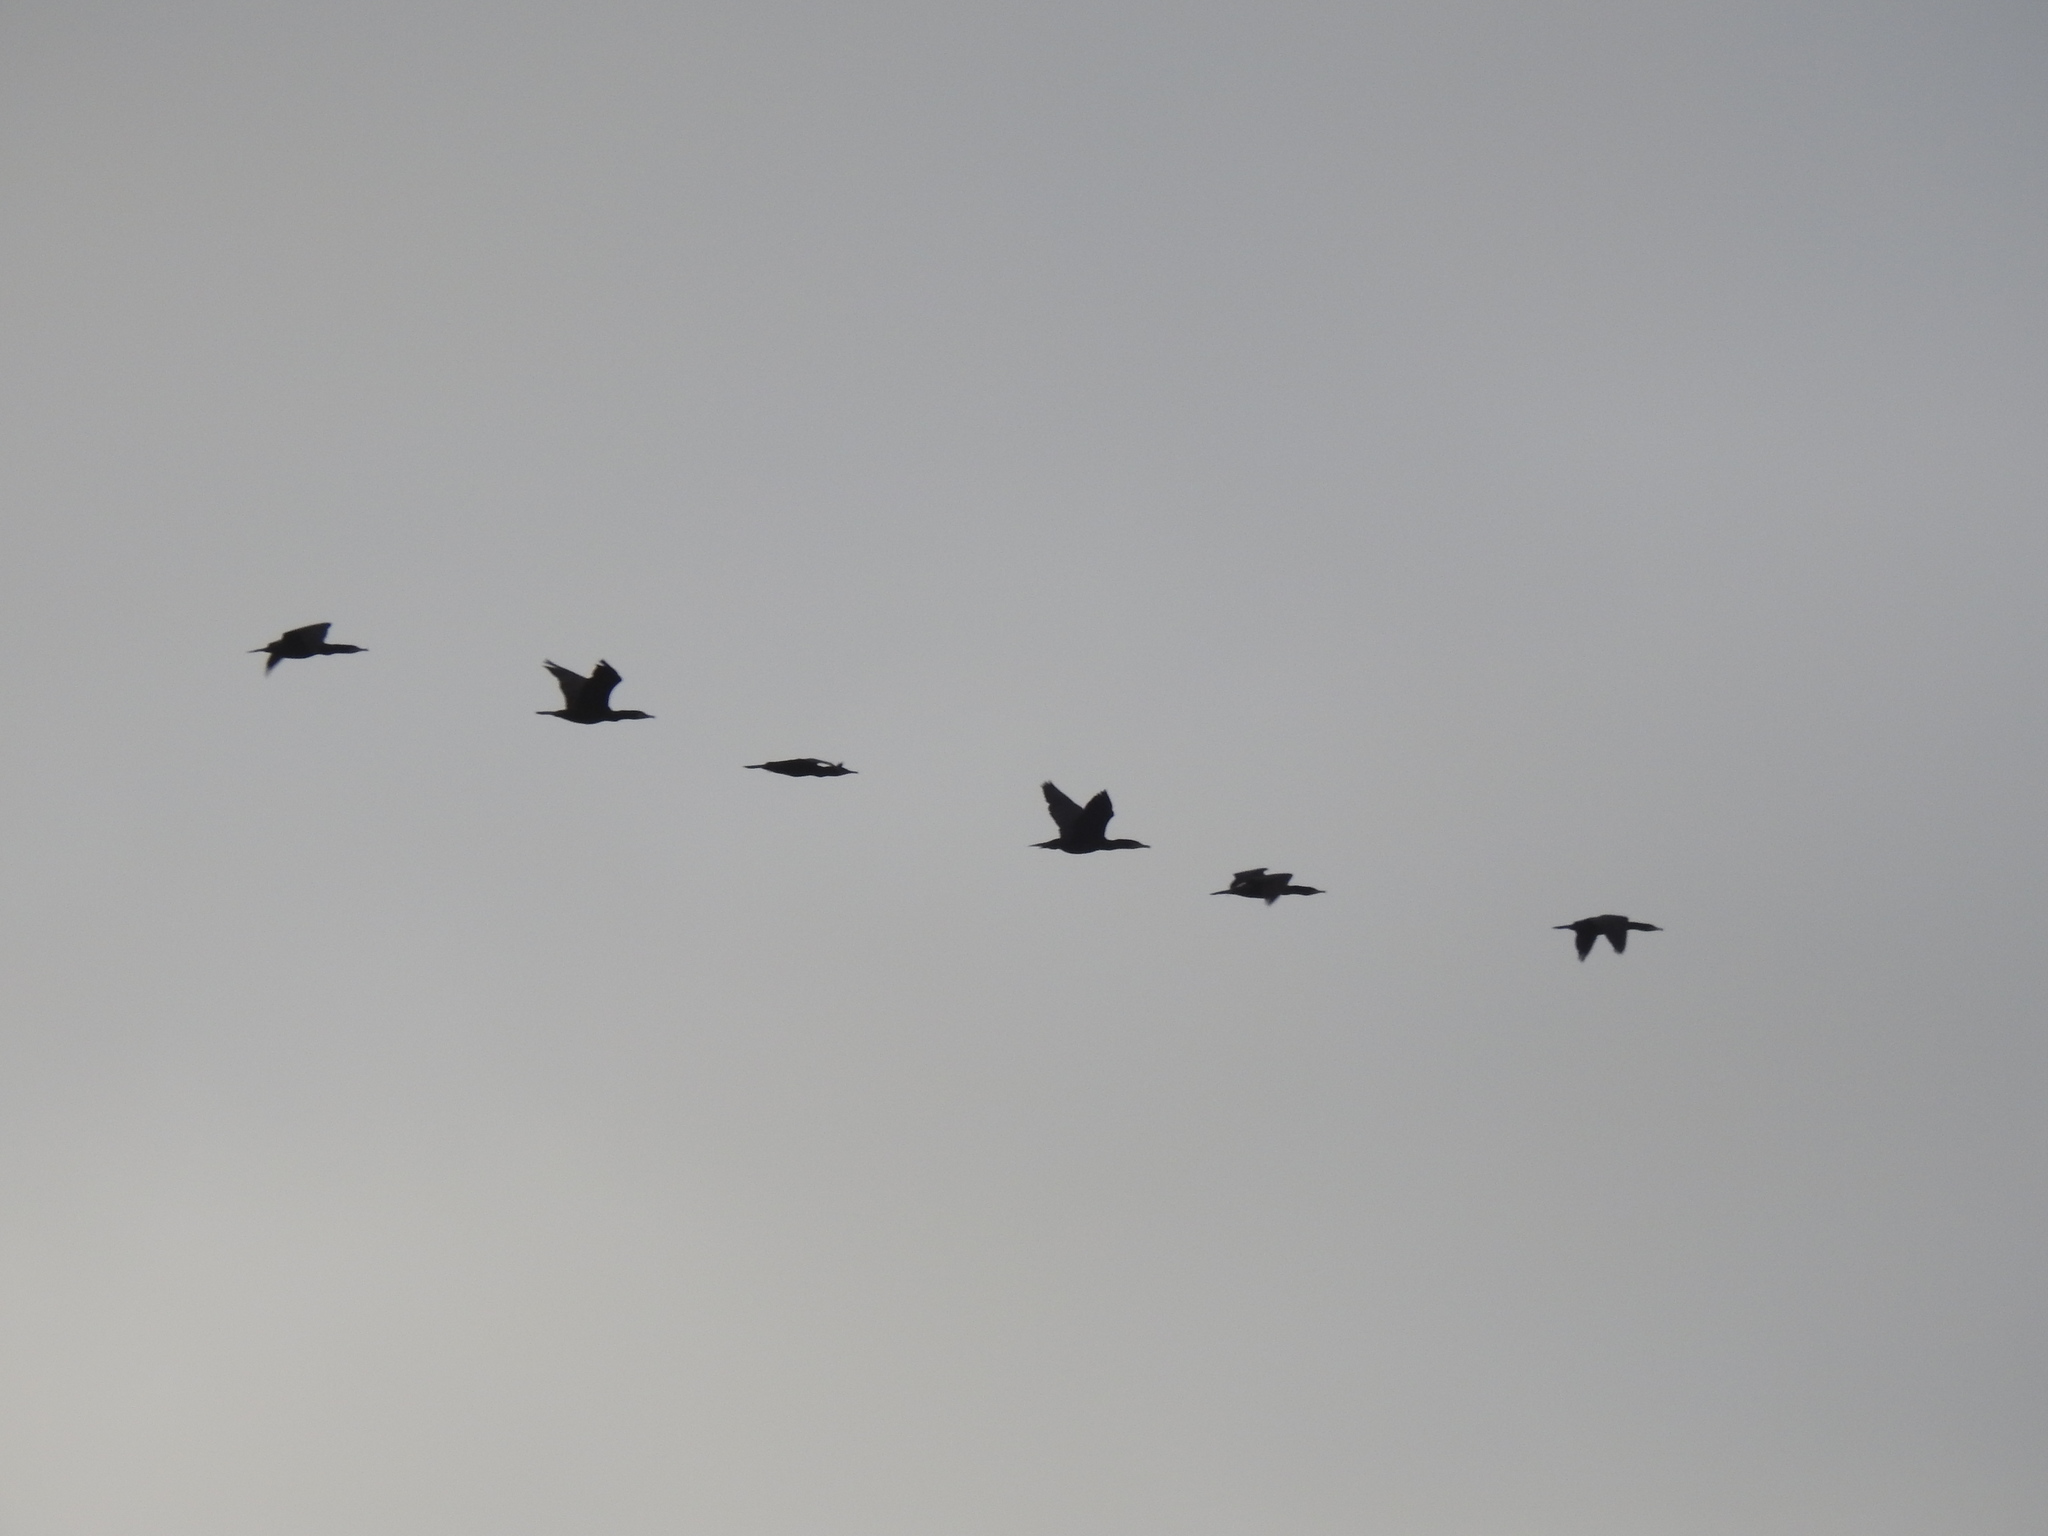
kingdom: Animalia
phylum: Chordata
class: Aves
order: Suliformes
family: Phalacrocoracidae
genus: Phalacrocorax
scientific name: Phalacrocorax carbo
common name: Great cormorant
